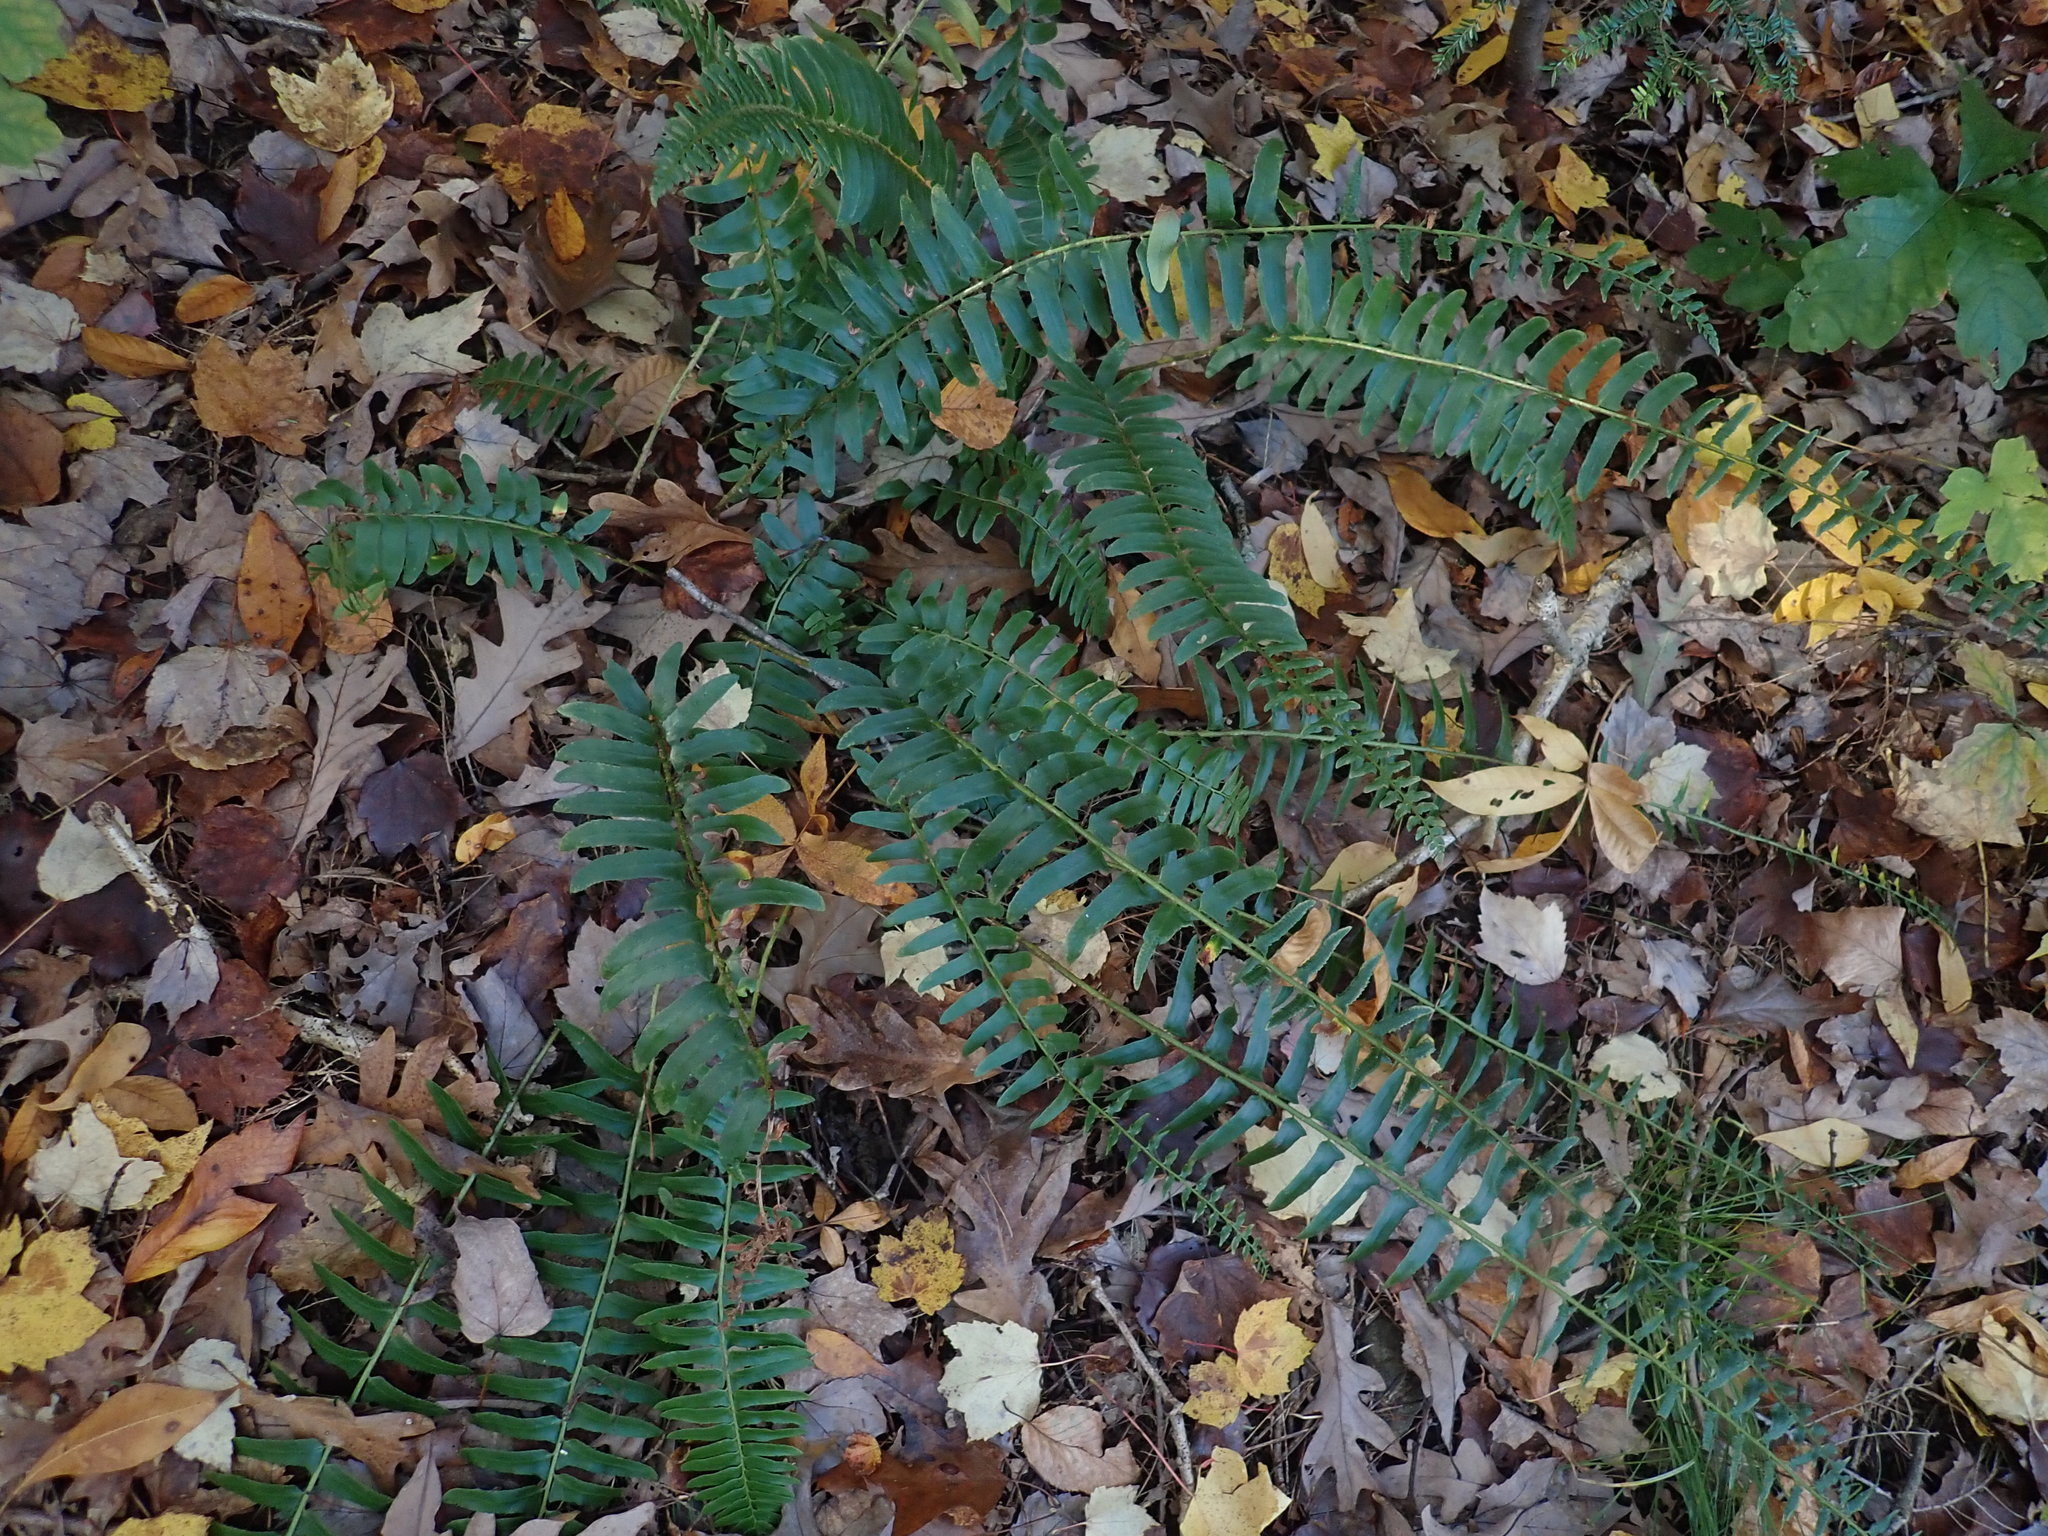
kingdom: Plantae
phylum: Tracheophyta
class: Polypodiopsida
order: Polypodiales
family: Dryopteridaceae
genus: Polystichum
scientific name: Polystichum acrostichoides
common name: Christmas fern
